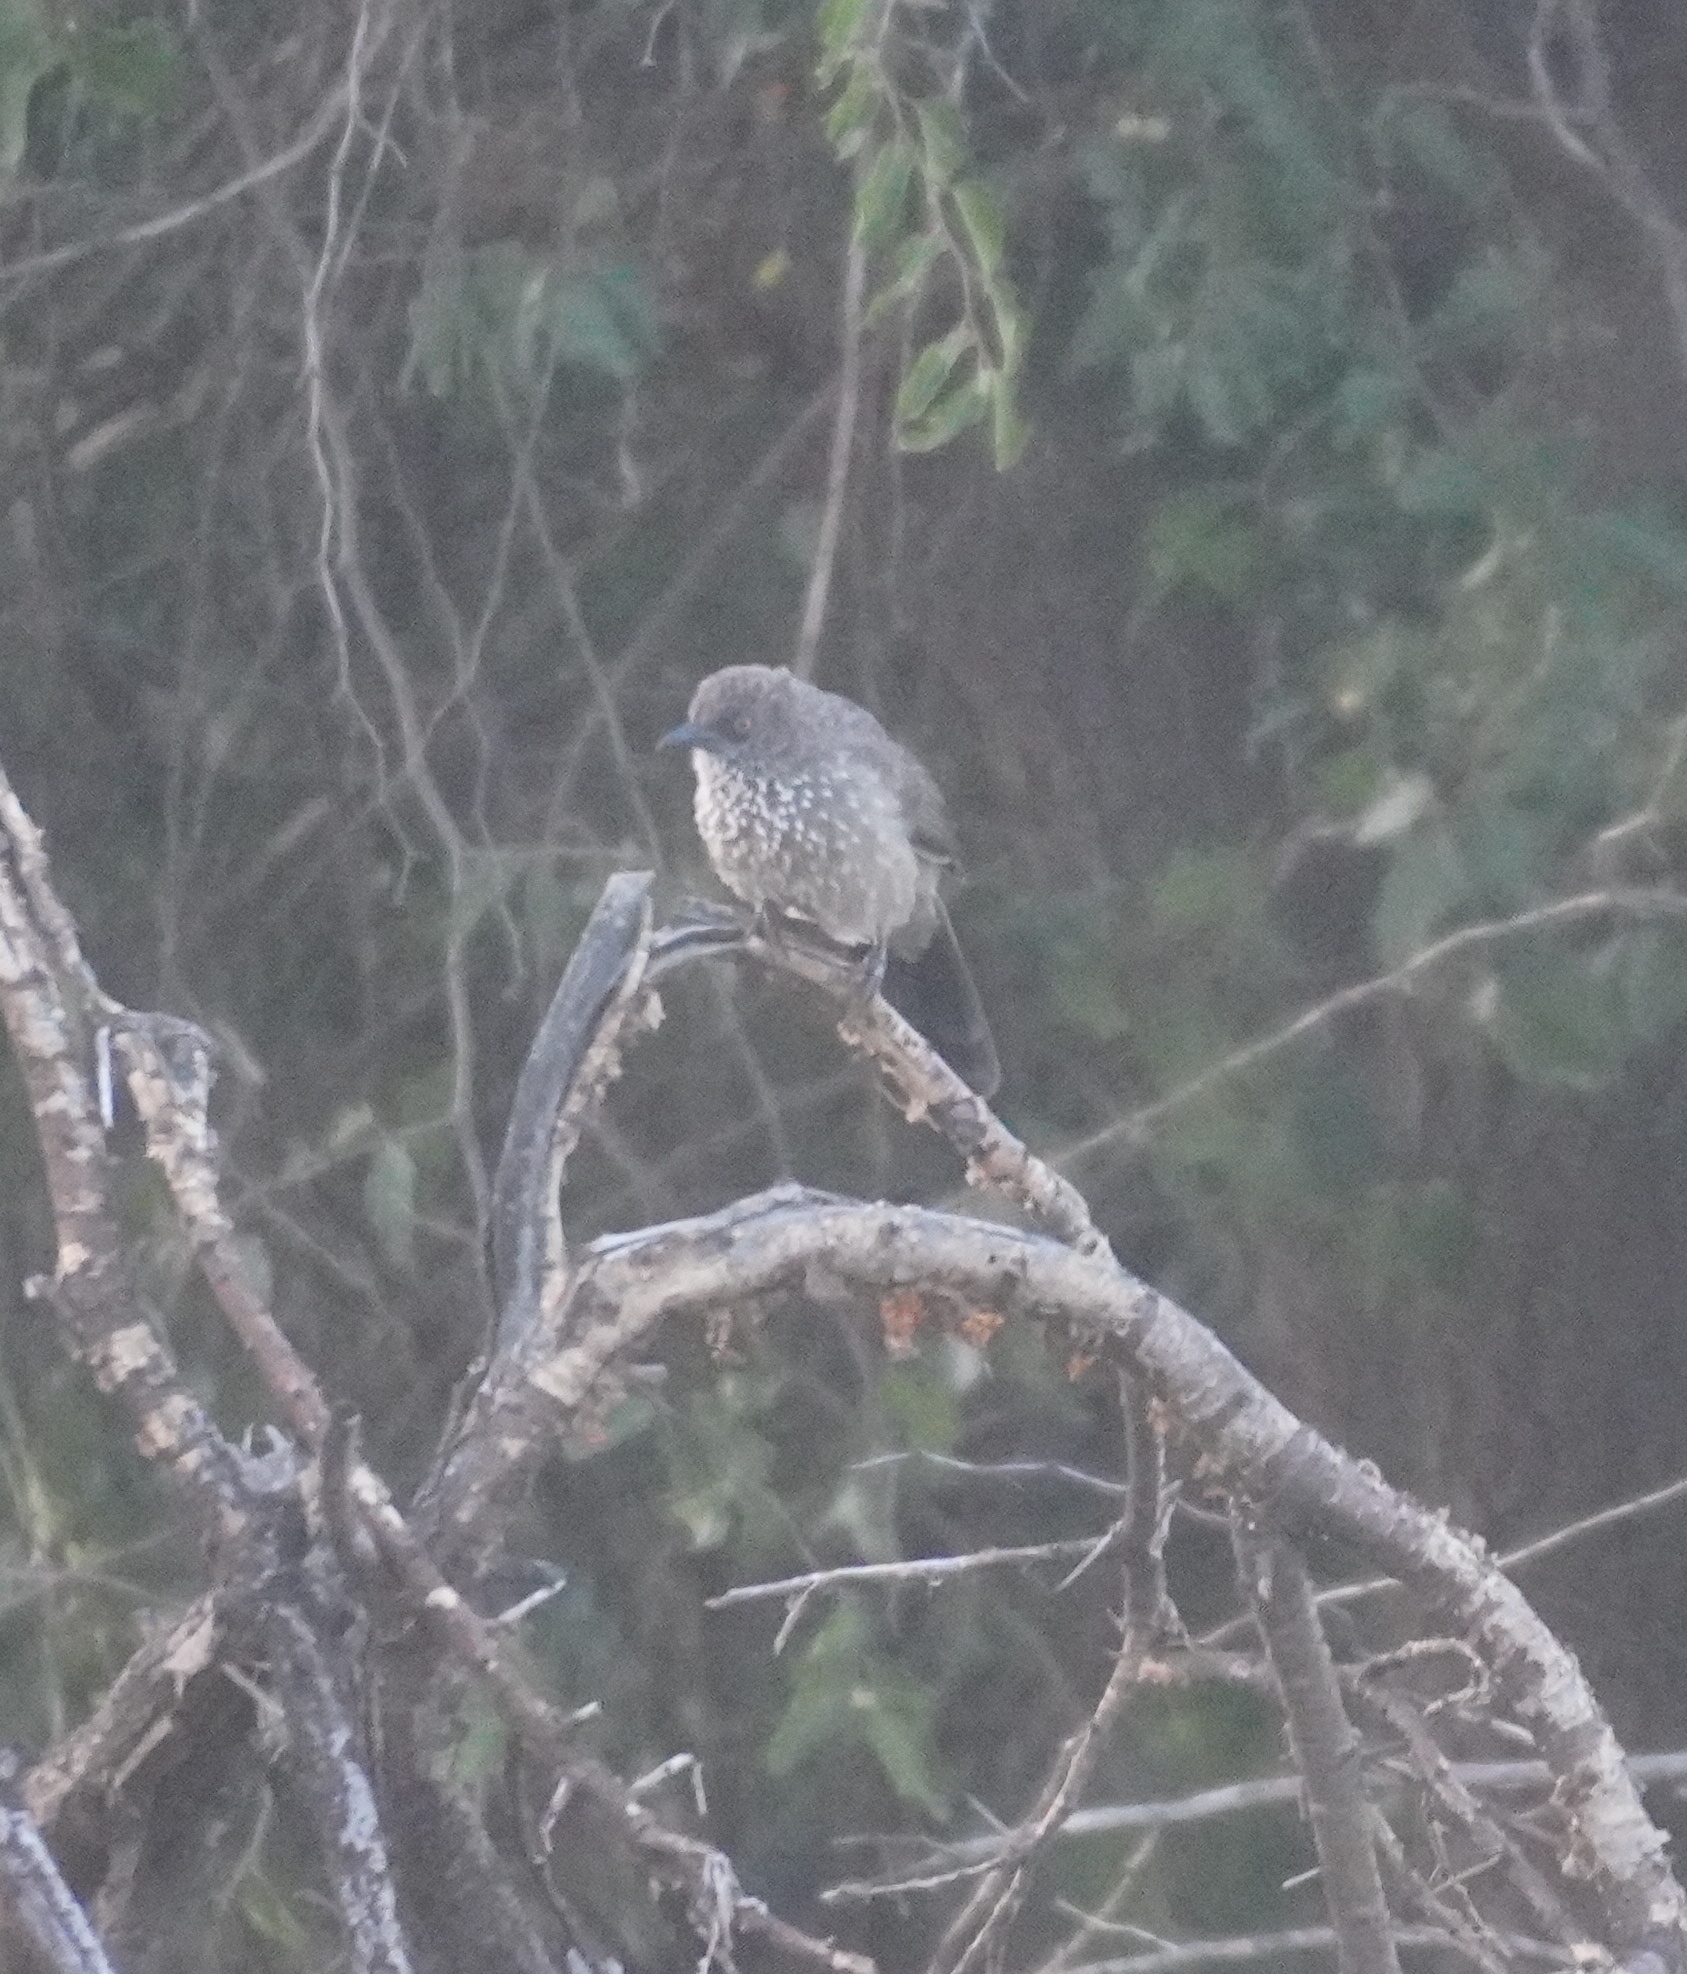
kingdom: Animalia
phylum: Chordata
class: Aves
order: Passeriformes
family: Leiothrichidae
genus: Turdoides
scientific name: Turdoides jardineii
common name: Arrow-marked babbler
